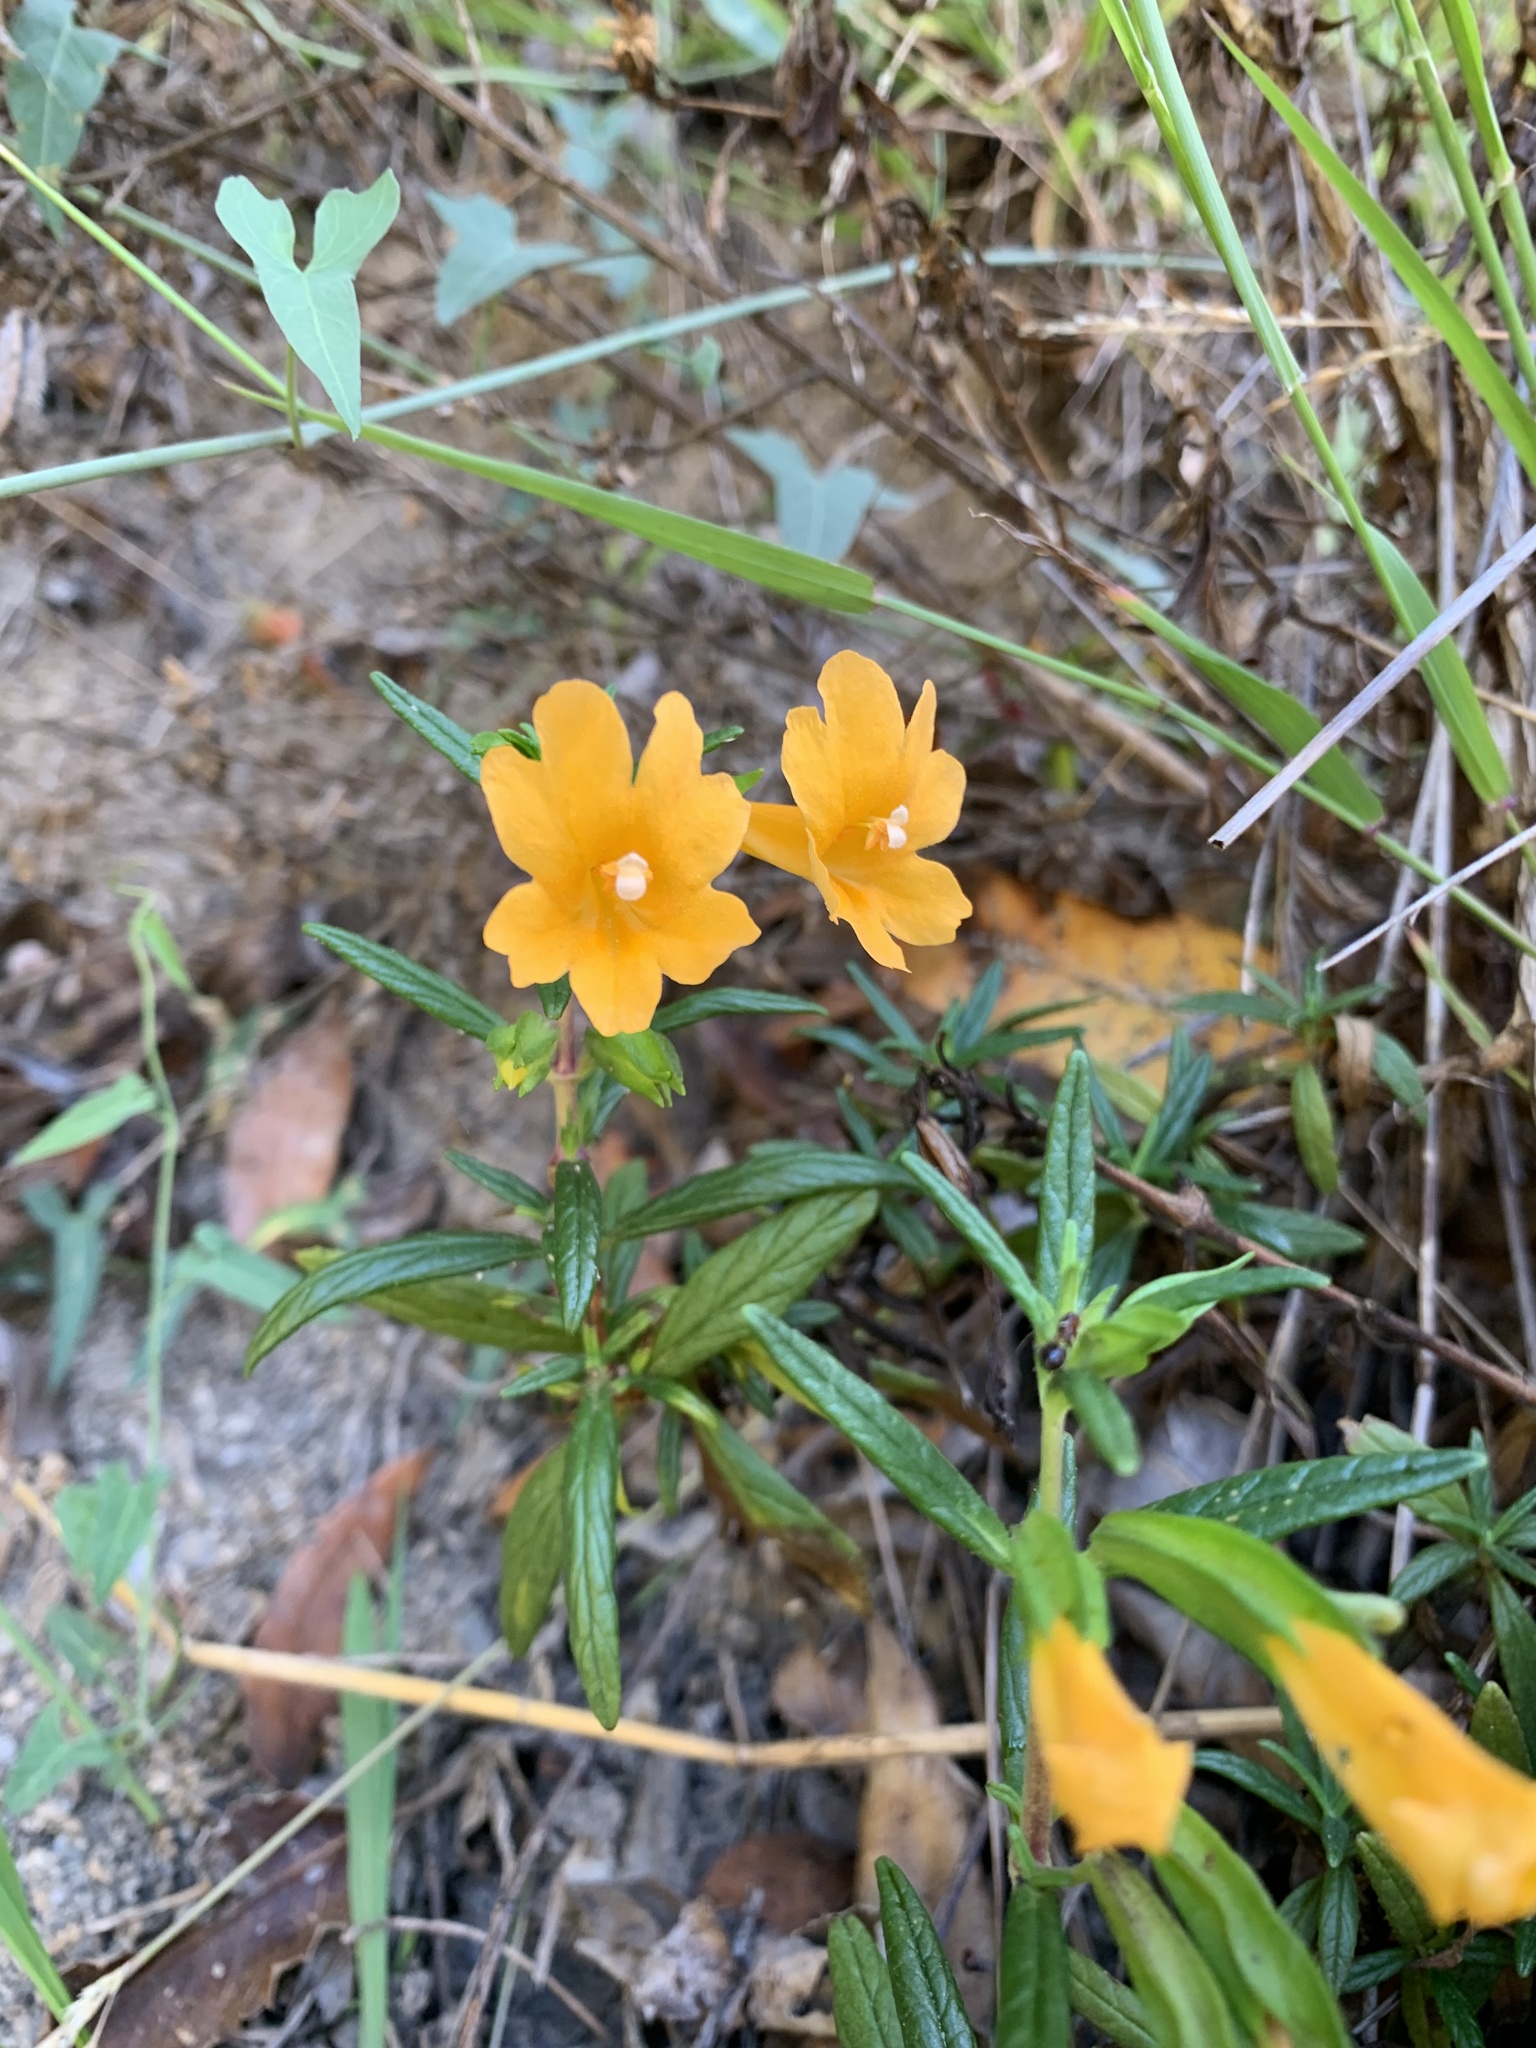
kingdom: Plantae
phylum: Tracheophyta
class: Magnoliopsida
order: Lamiales
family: Phrymaceae
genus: Diplacus
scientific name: Diplacus aurantiacus
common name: Bush monkey-flower
